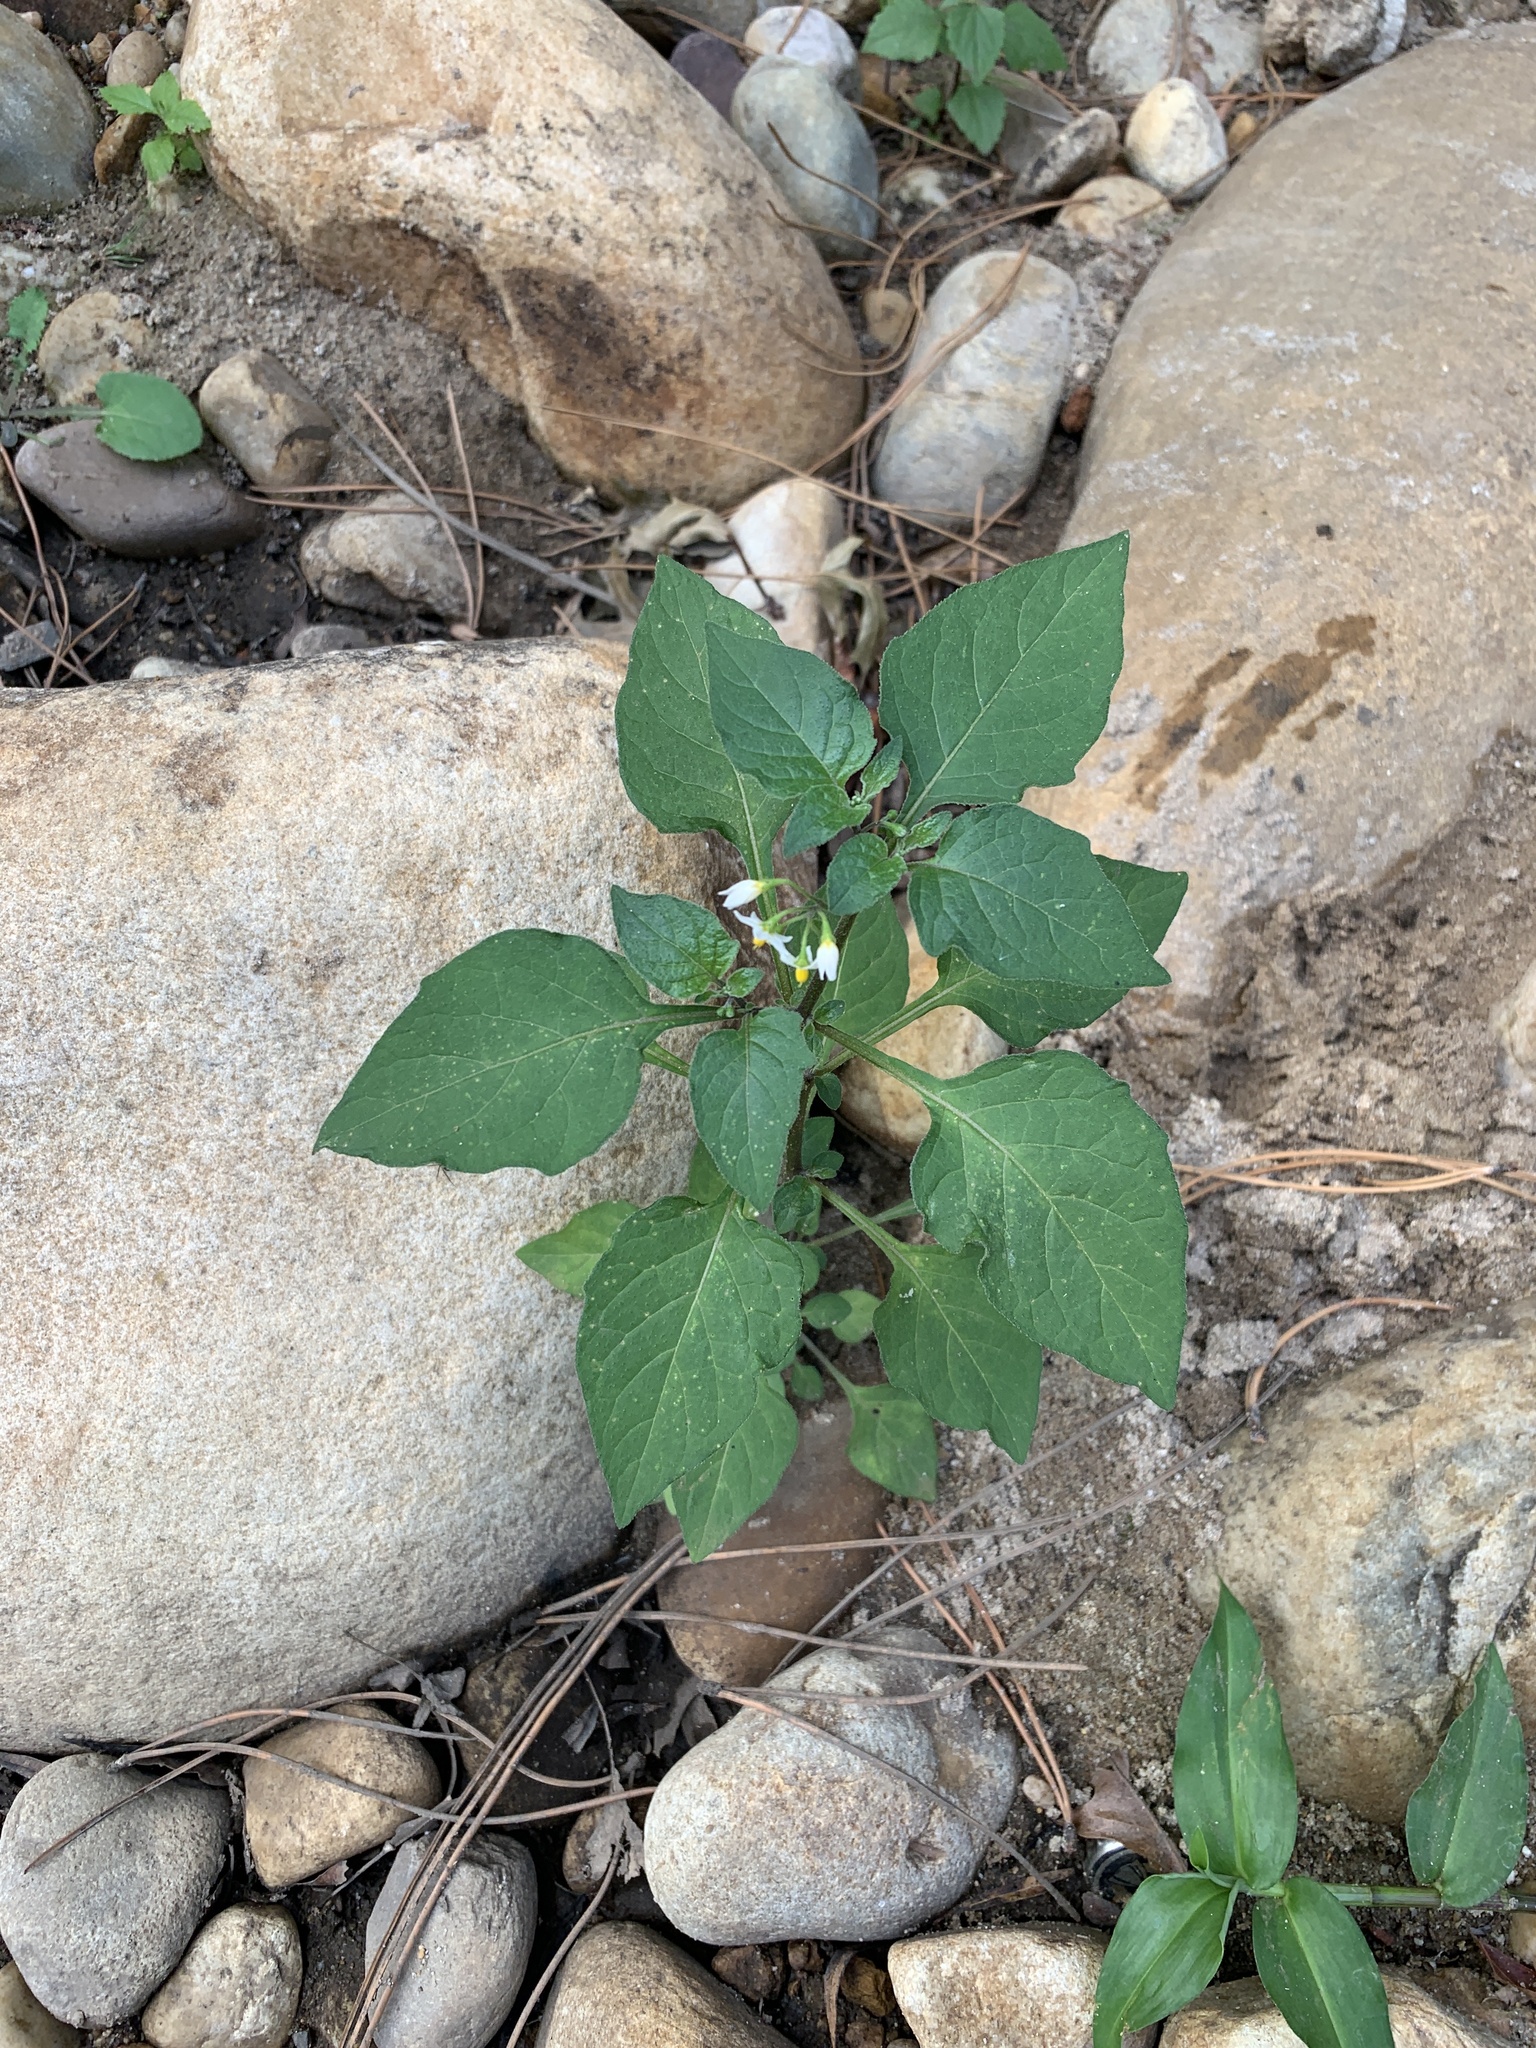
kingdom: Plantae
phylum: Tracheophyta
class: Magnoliopsida
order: Solanales
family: Solanaceae
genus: Solanum
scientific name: Solanum nigrum
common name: Black nightshade
